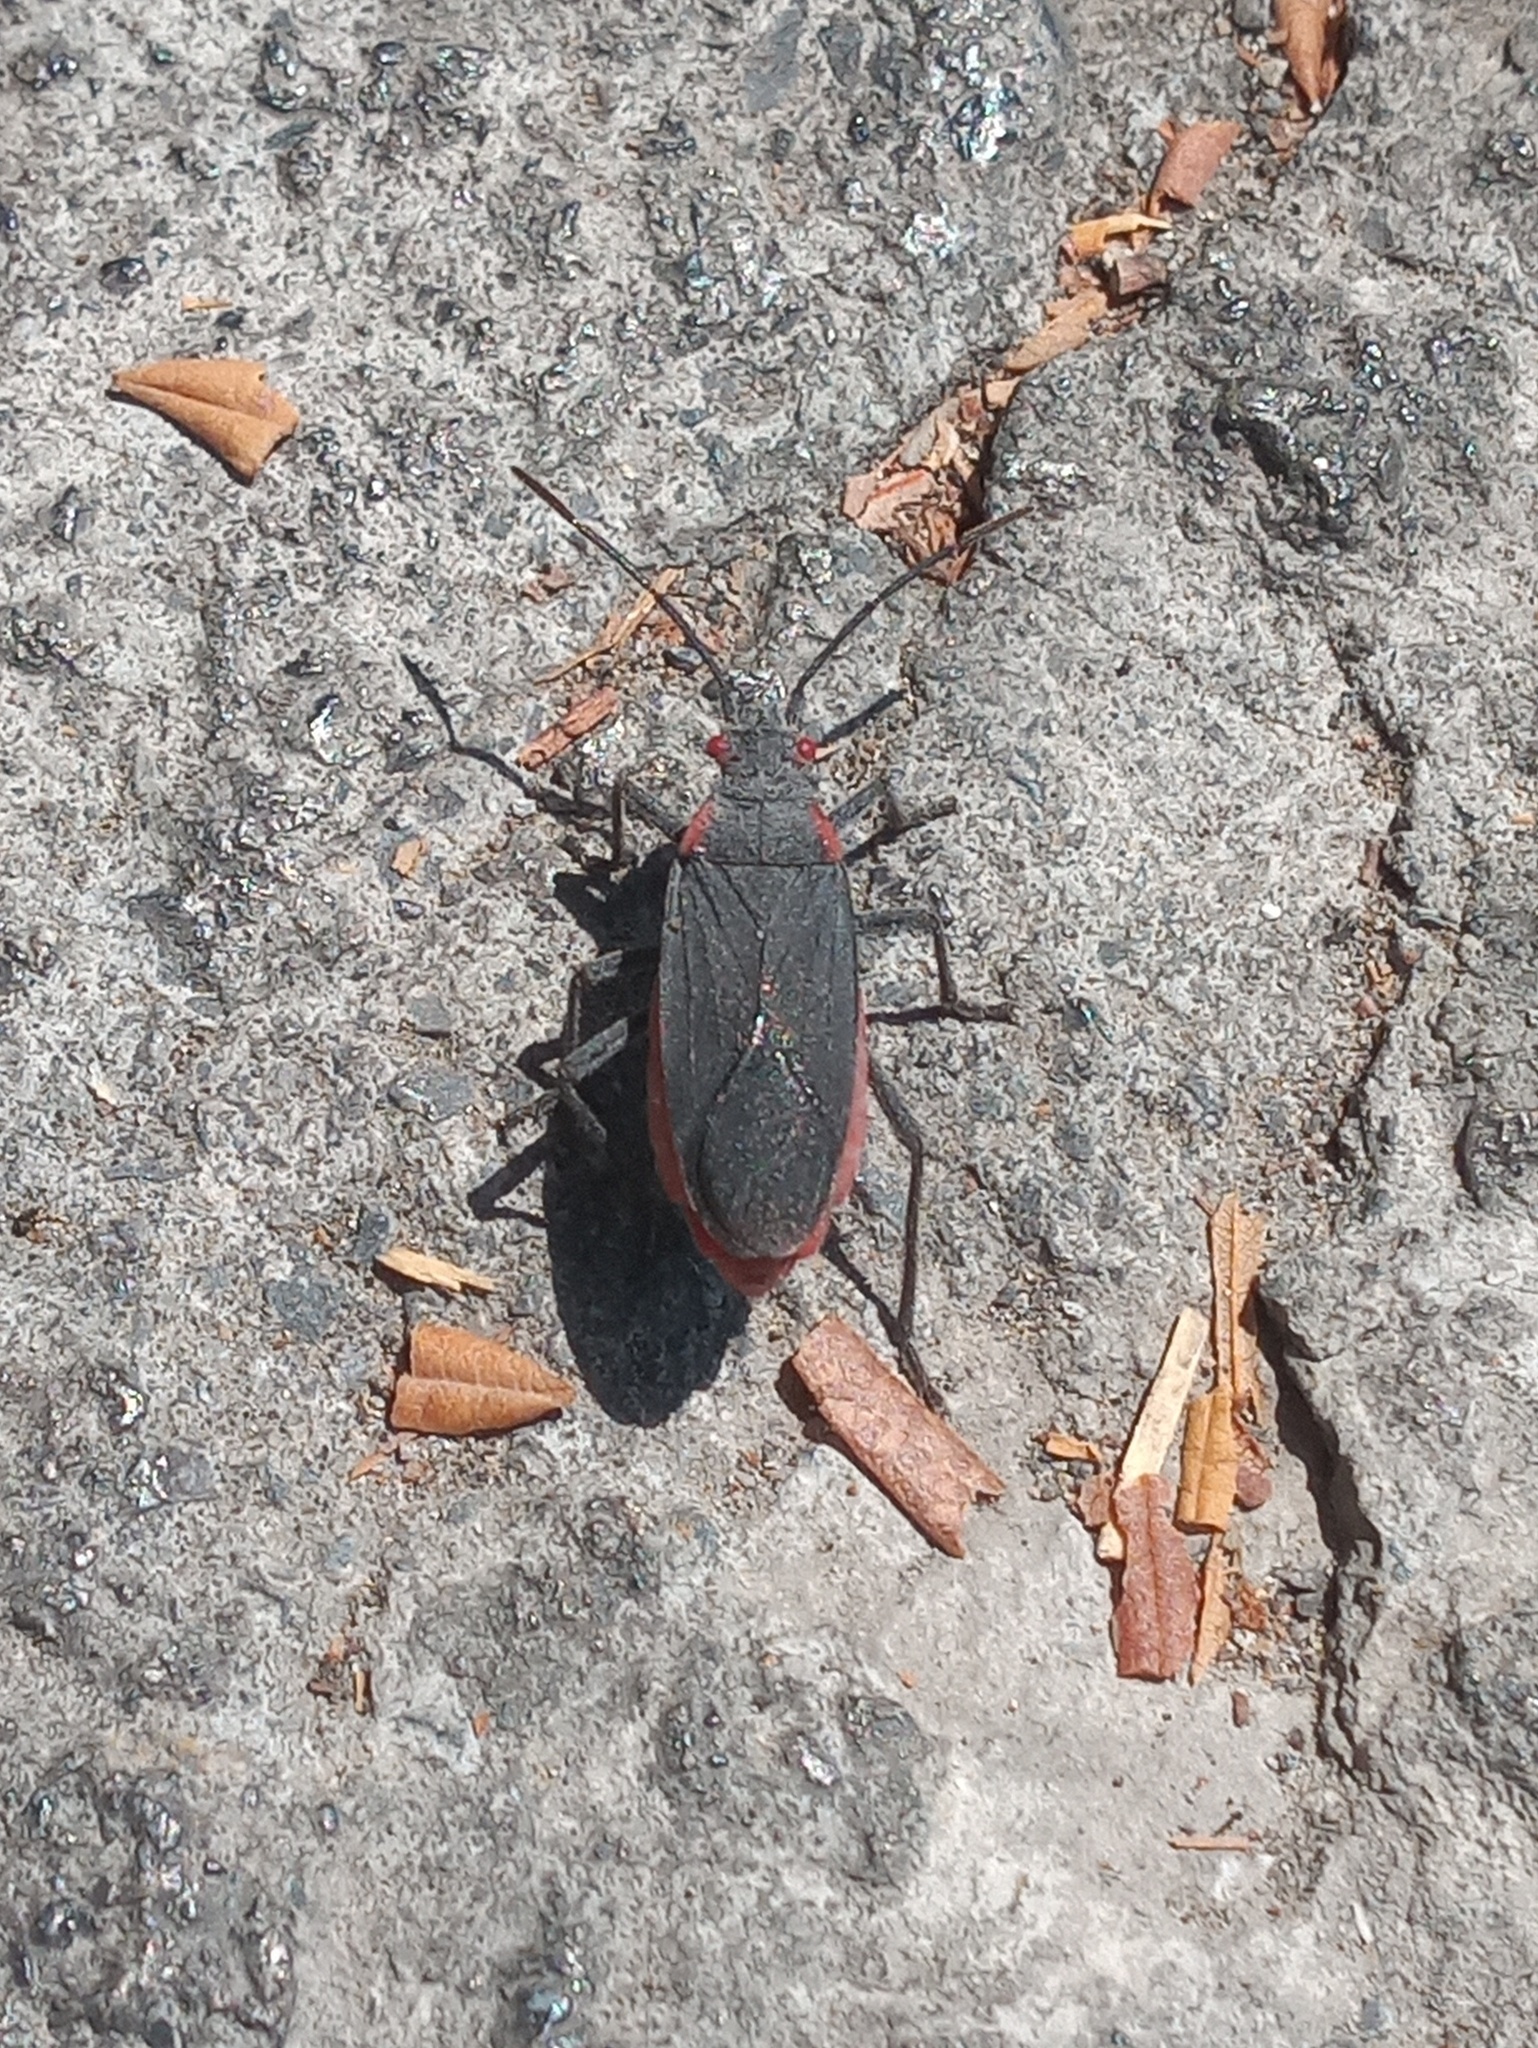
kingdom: Animalia
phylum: Arthropoda
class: Insecta
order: Hemiptera
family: Rhopalidae
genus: Jadera
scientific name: Jadera haematoloma
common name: Red-shouldered bug
